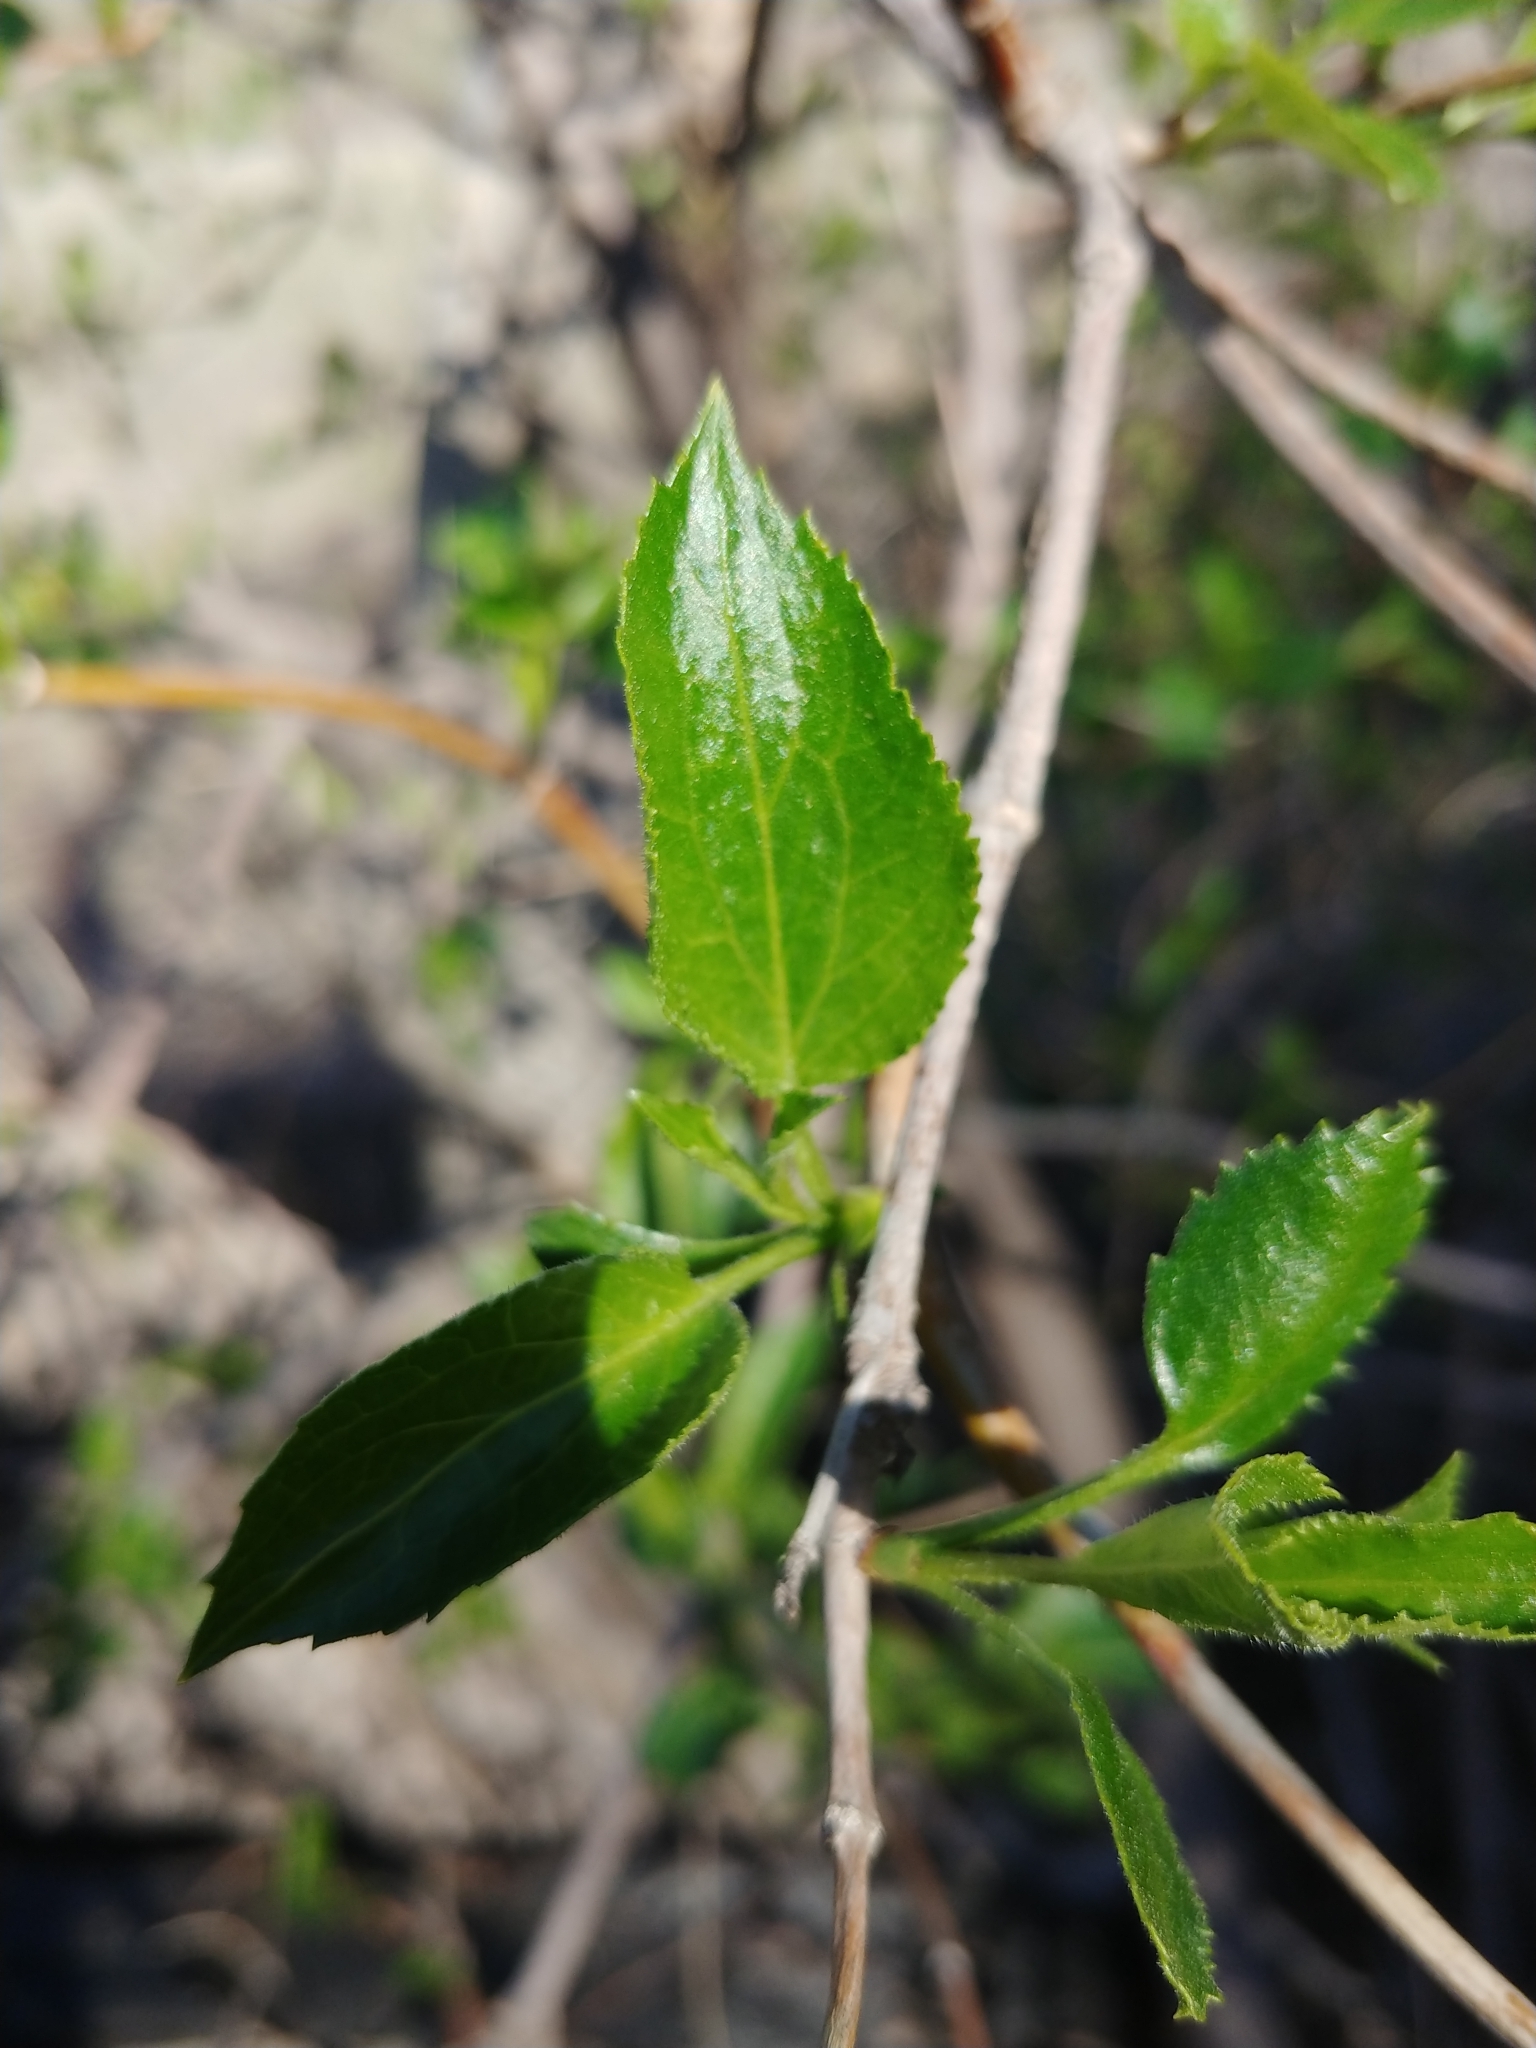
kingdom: Plantae
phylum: Tracheophyta
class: Magnoliopsida
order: Dipsacales
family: Viburnaceae
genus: Sambucus
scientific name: Sambucus cerulea
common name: Blue elder
